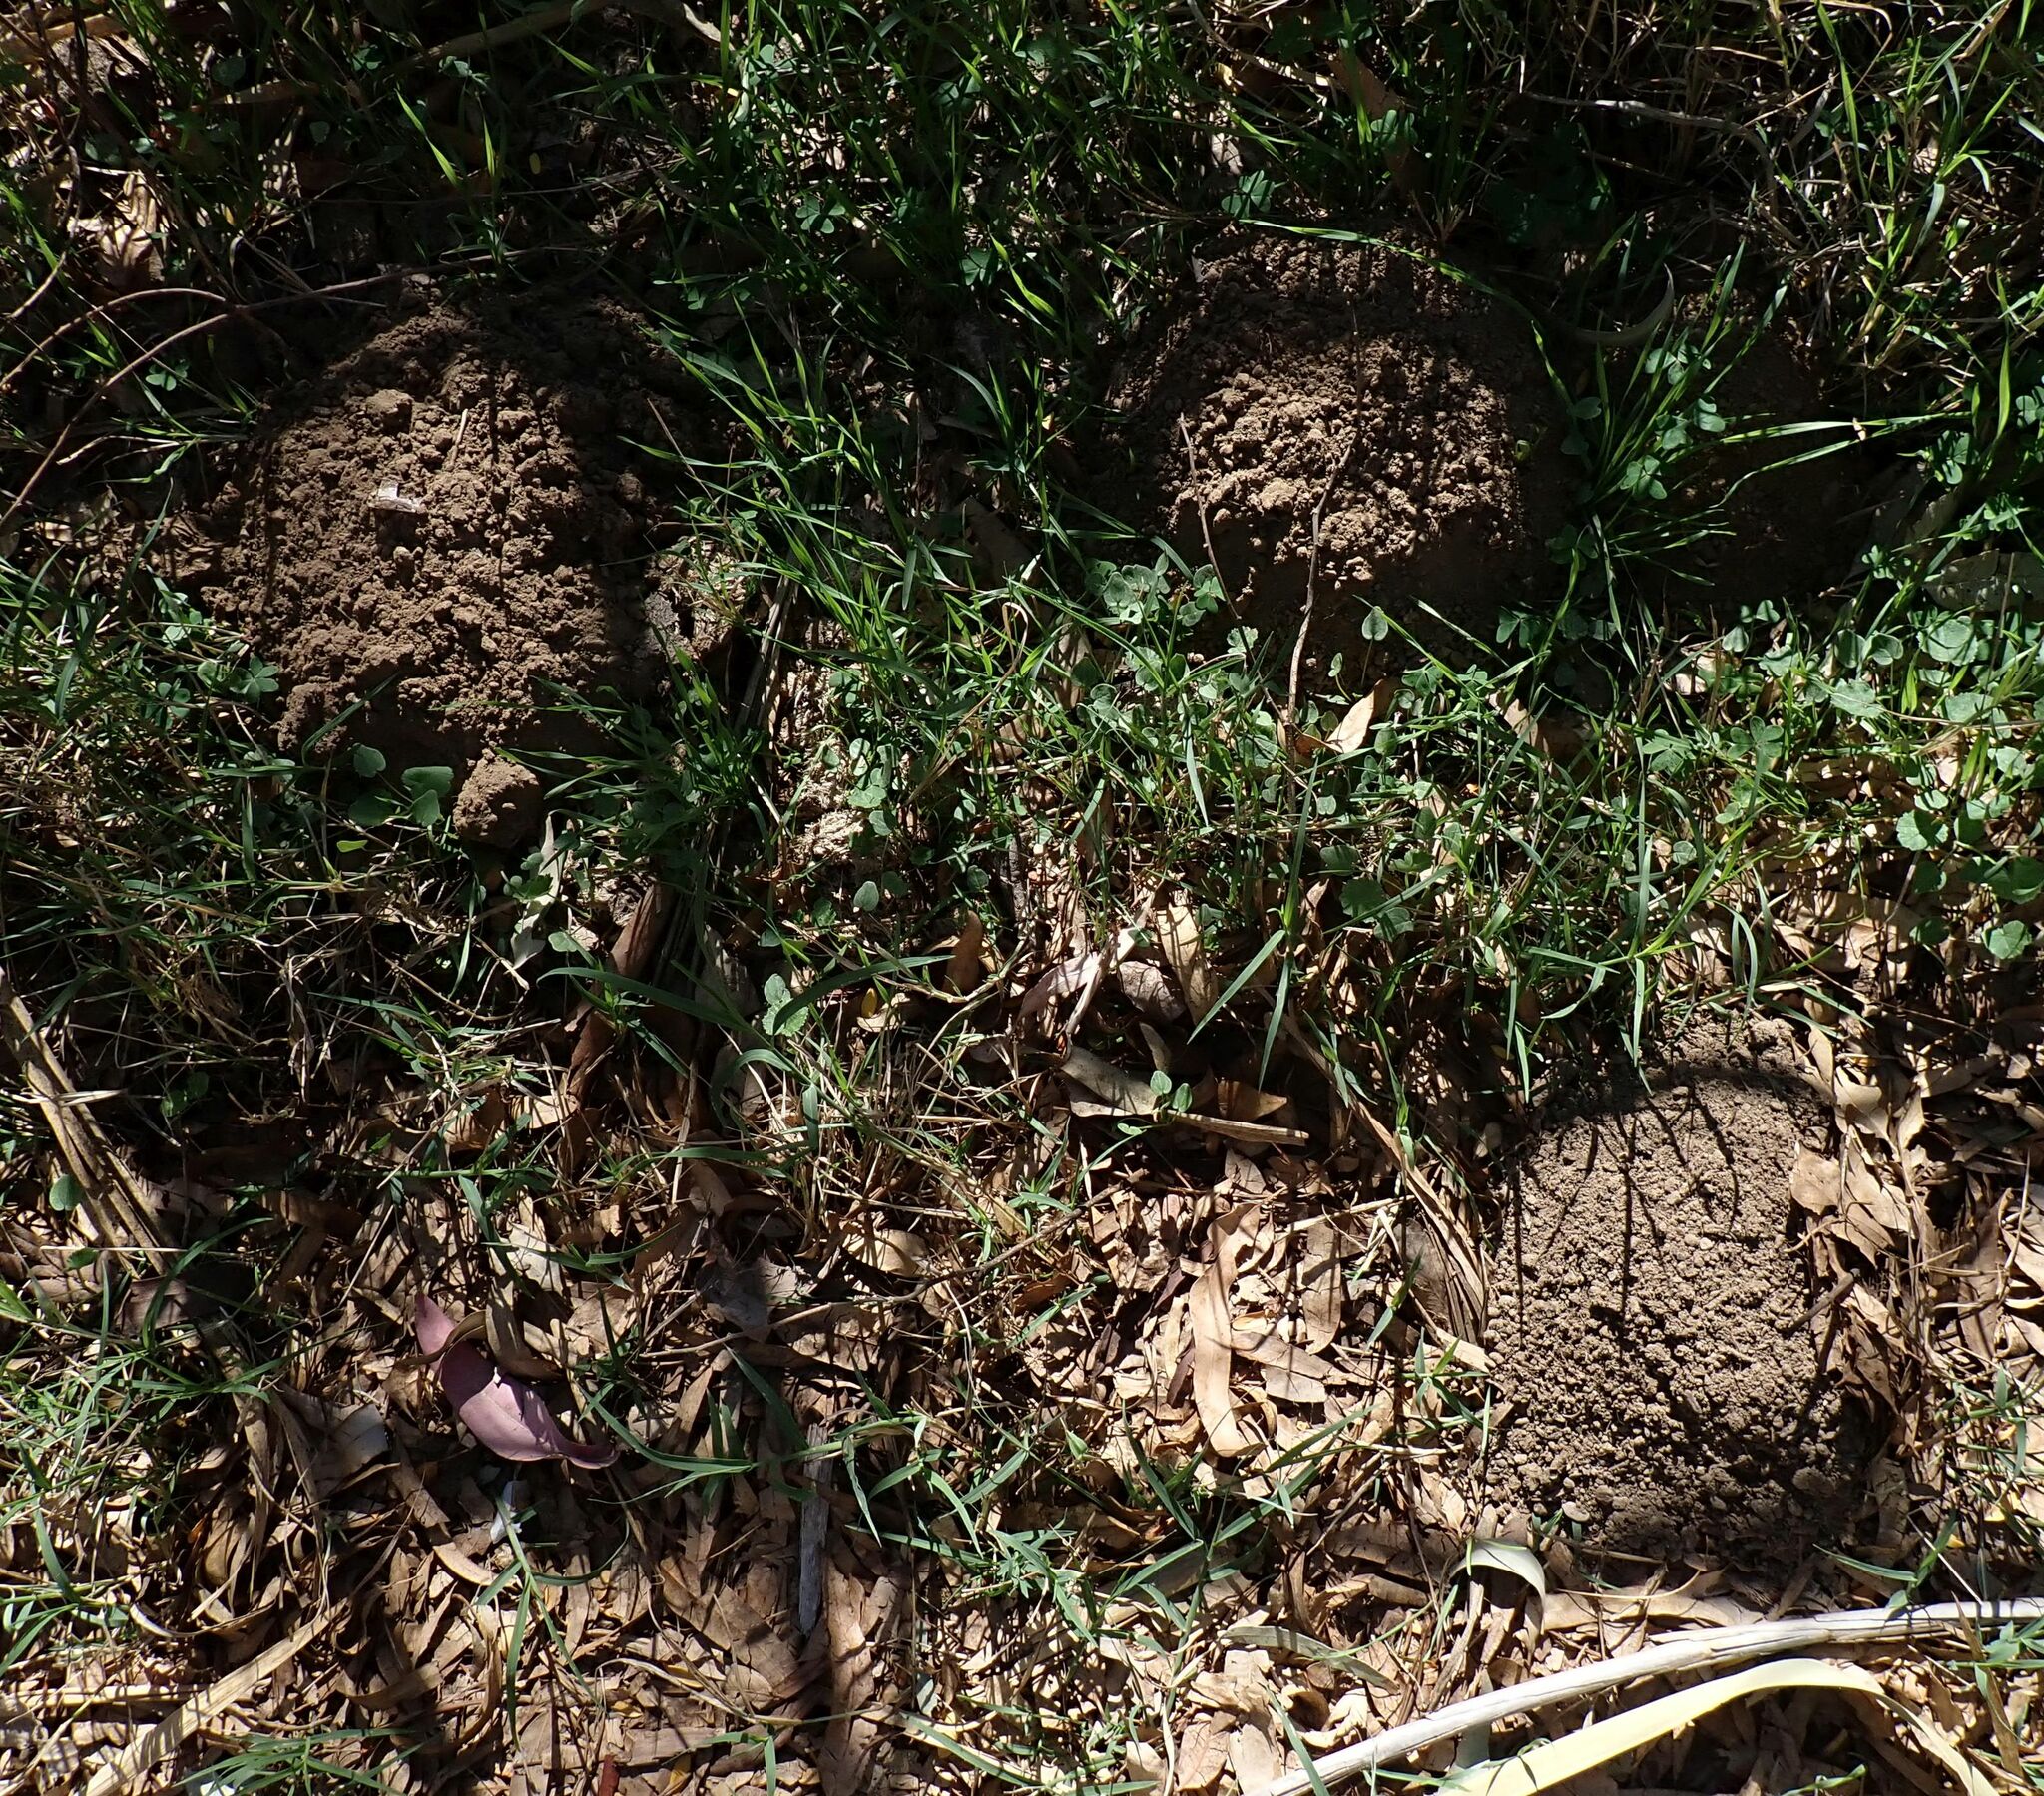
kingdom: Animalia
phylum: Chordata
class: Mammalia
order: Soricomorpha
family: Talpidae
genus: Talpa
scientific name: Talpa occidentalis
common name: Iberian mole
